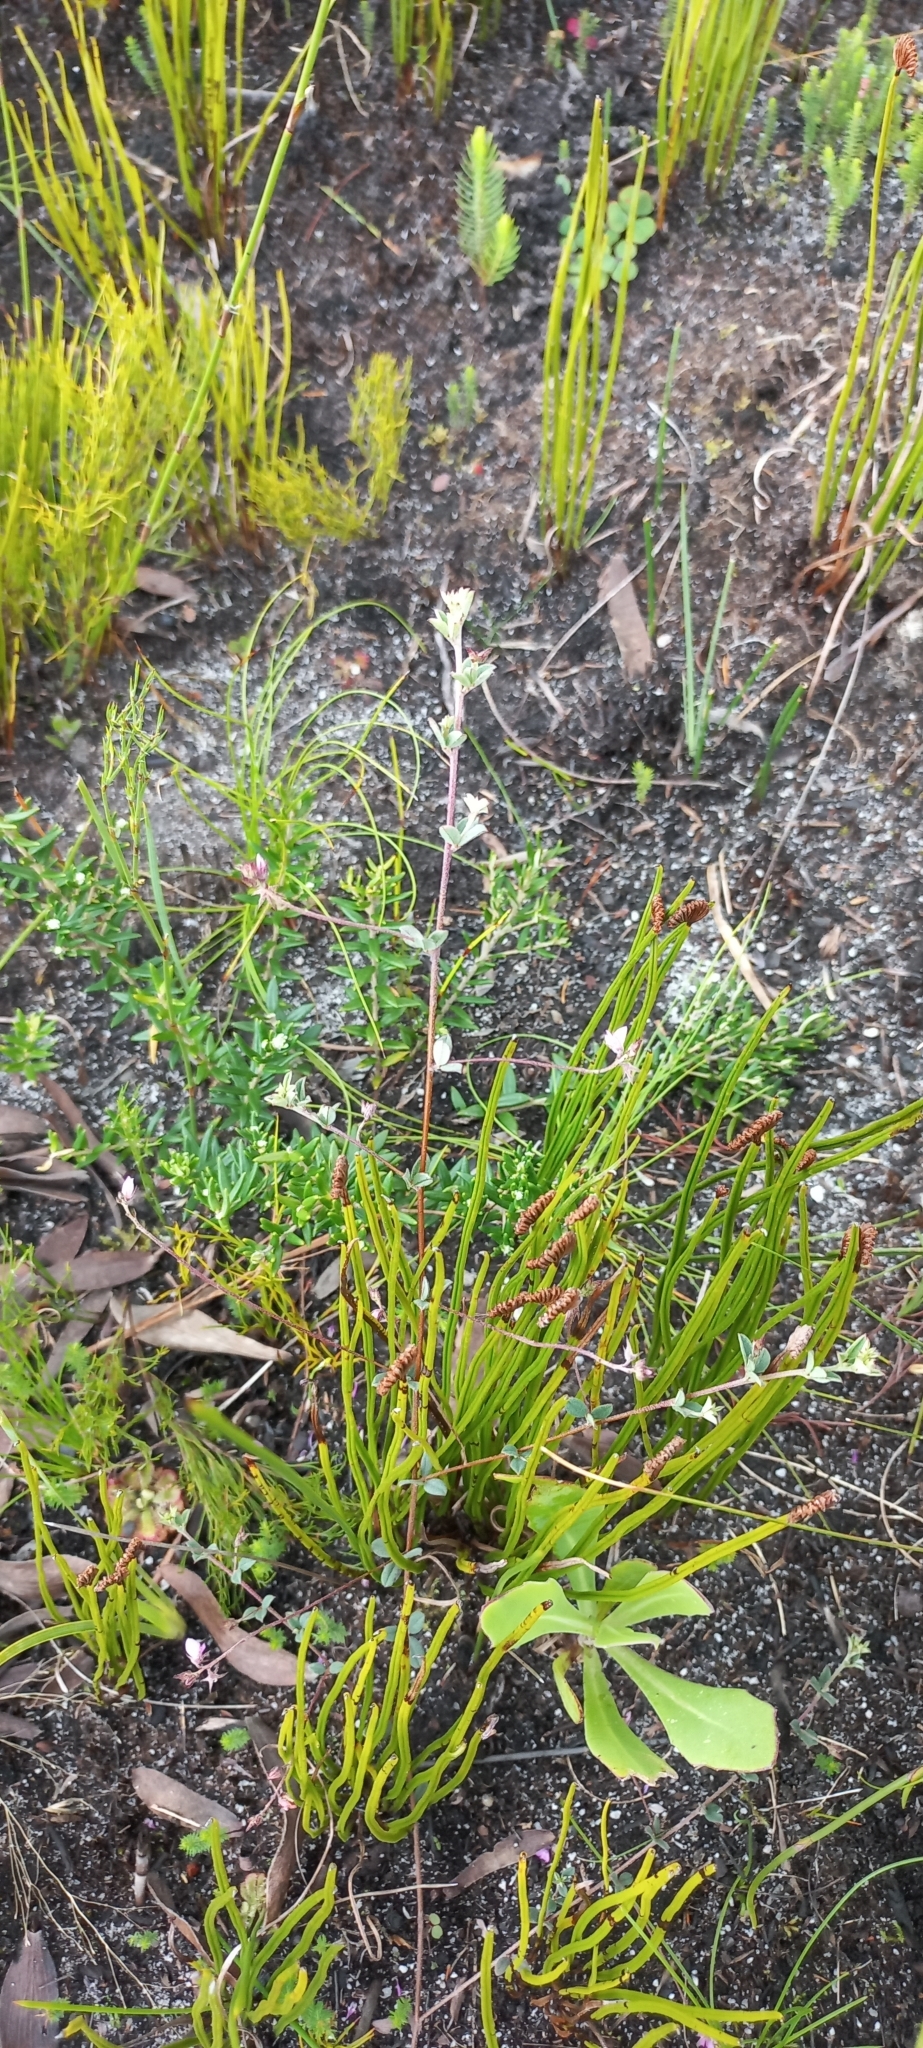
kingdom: Plantae
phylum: Tracheophyta
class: Magnoliopsida
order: Fabales
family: Fabaceae
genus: Indigofera
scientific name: Indigofera sarmentosa
